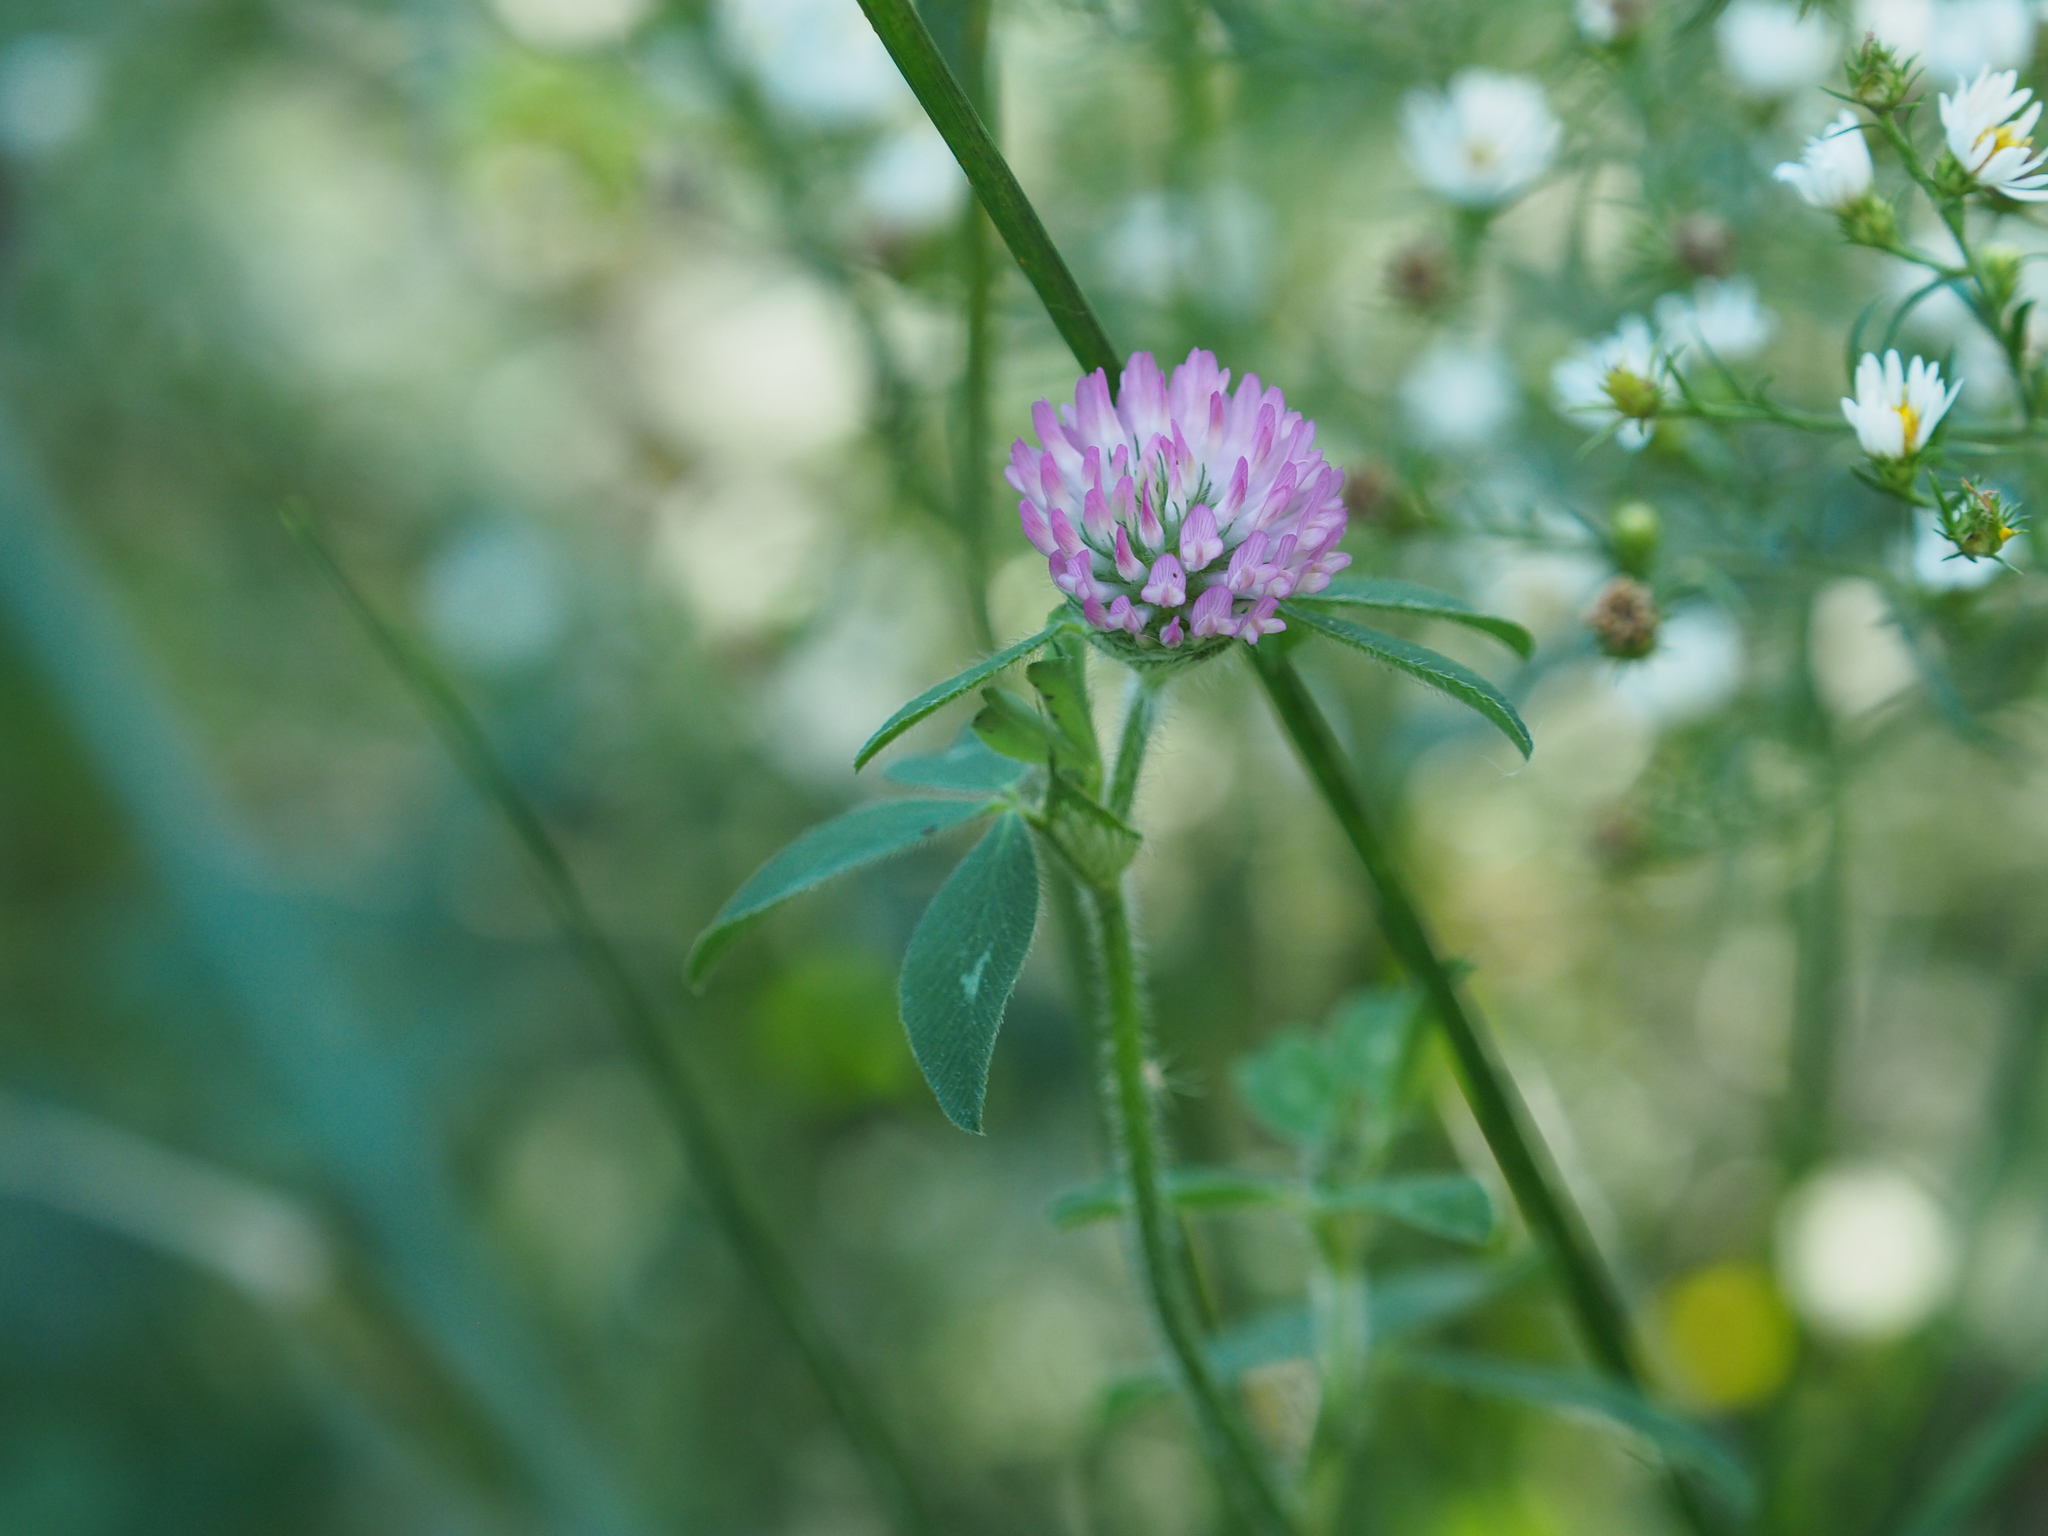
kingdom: Plantae
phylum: Tracheophyta
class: Magnoliopsida
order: Fabales
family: Fabaceae
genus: Trifolium
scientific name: Trifolium pratense
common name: Red clover
